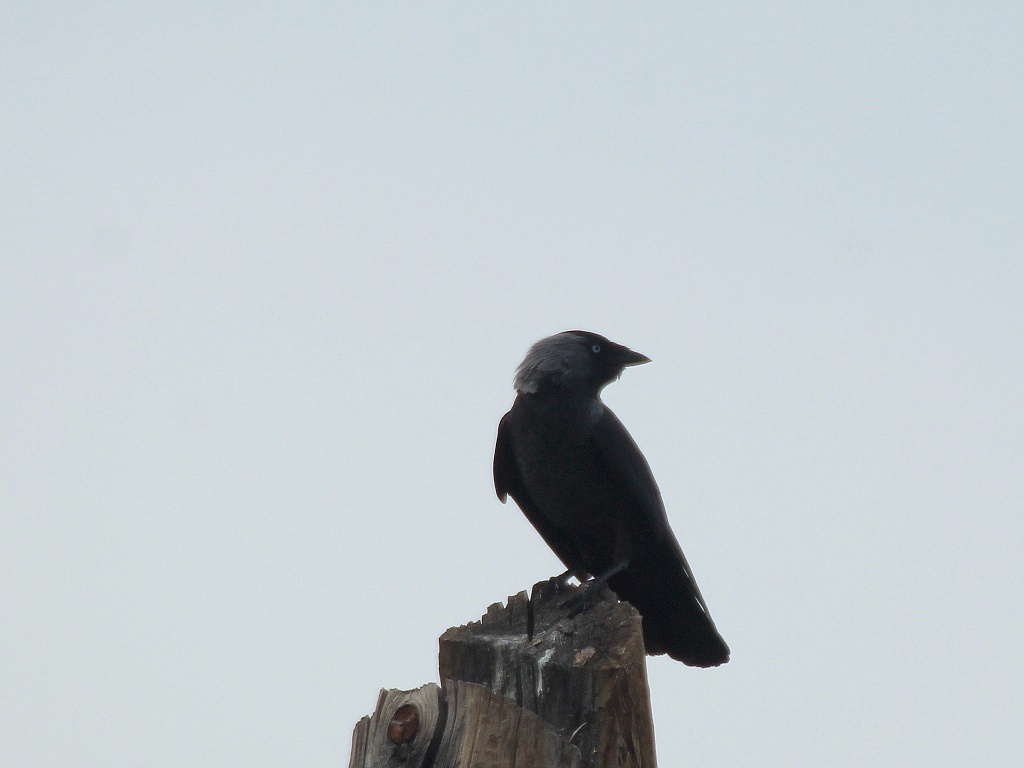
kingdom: Animalia
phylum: Chordata
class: Aves
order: Passeriformes
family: Corvidae
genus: Coloeus
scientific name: Coloeus monedula
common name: Western jackdaw
